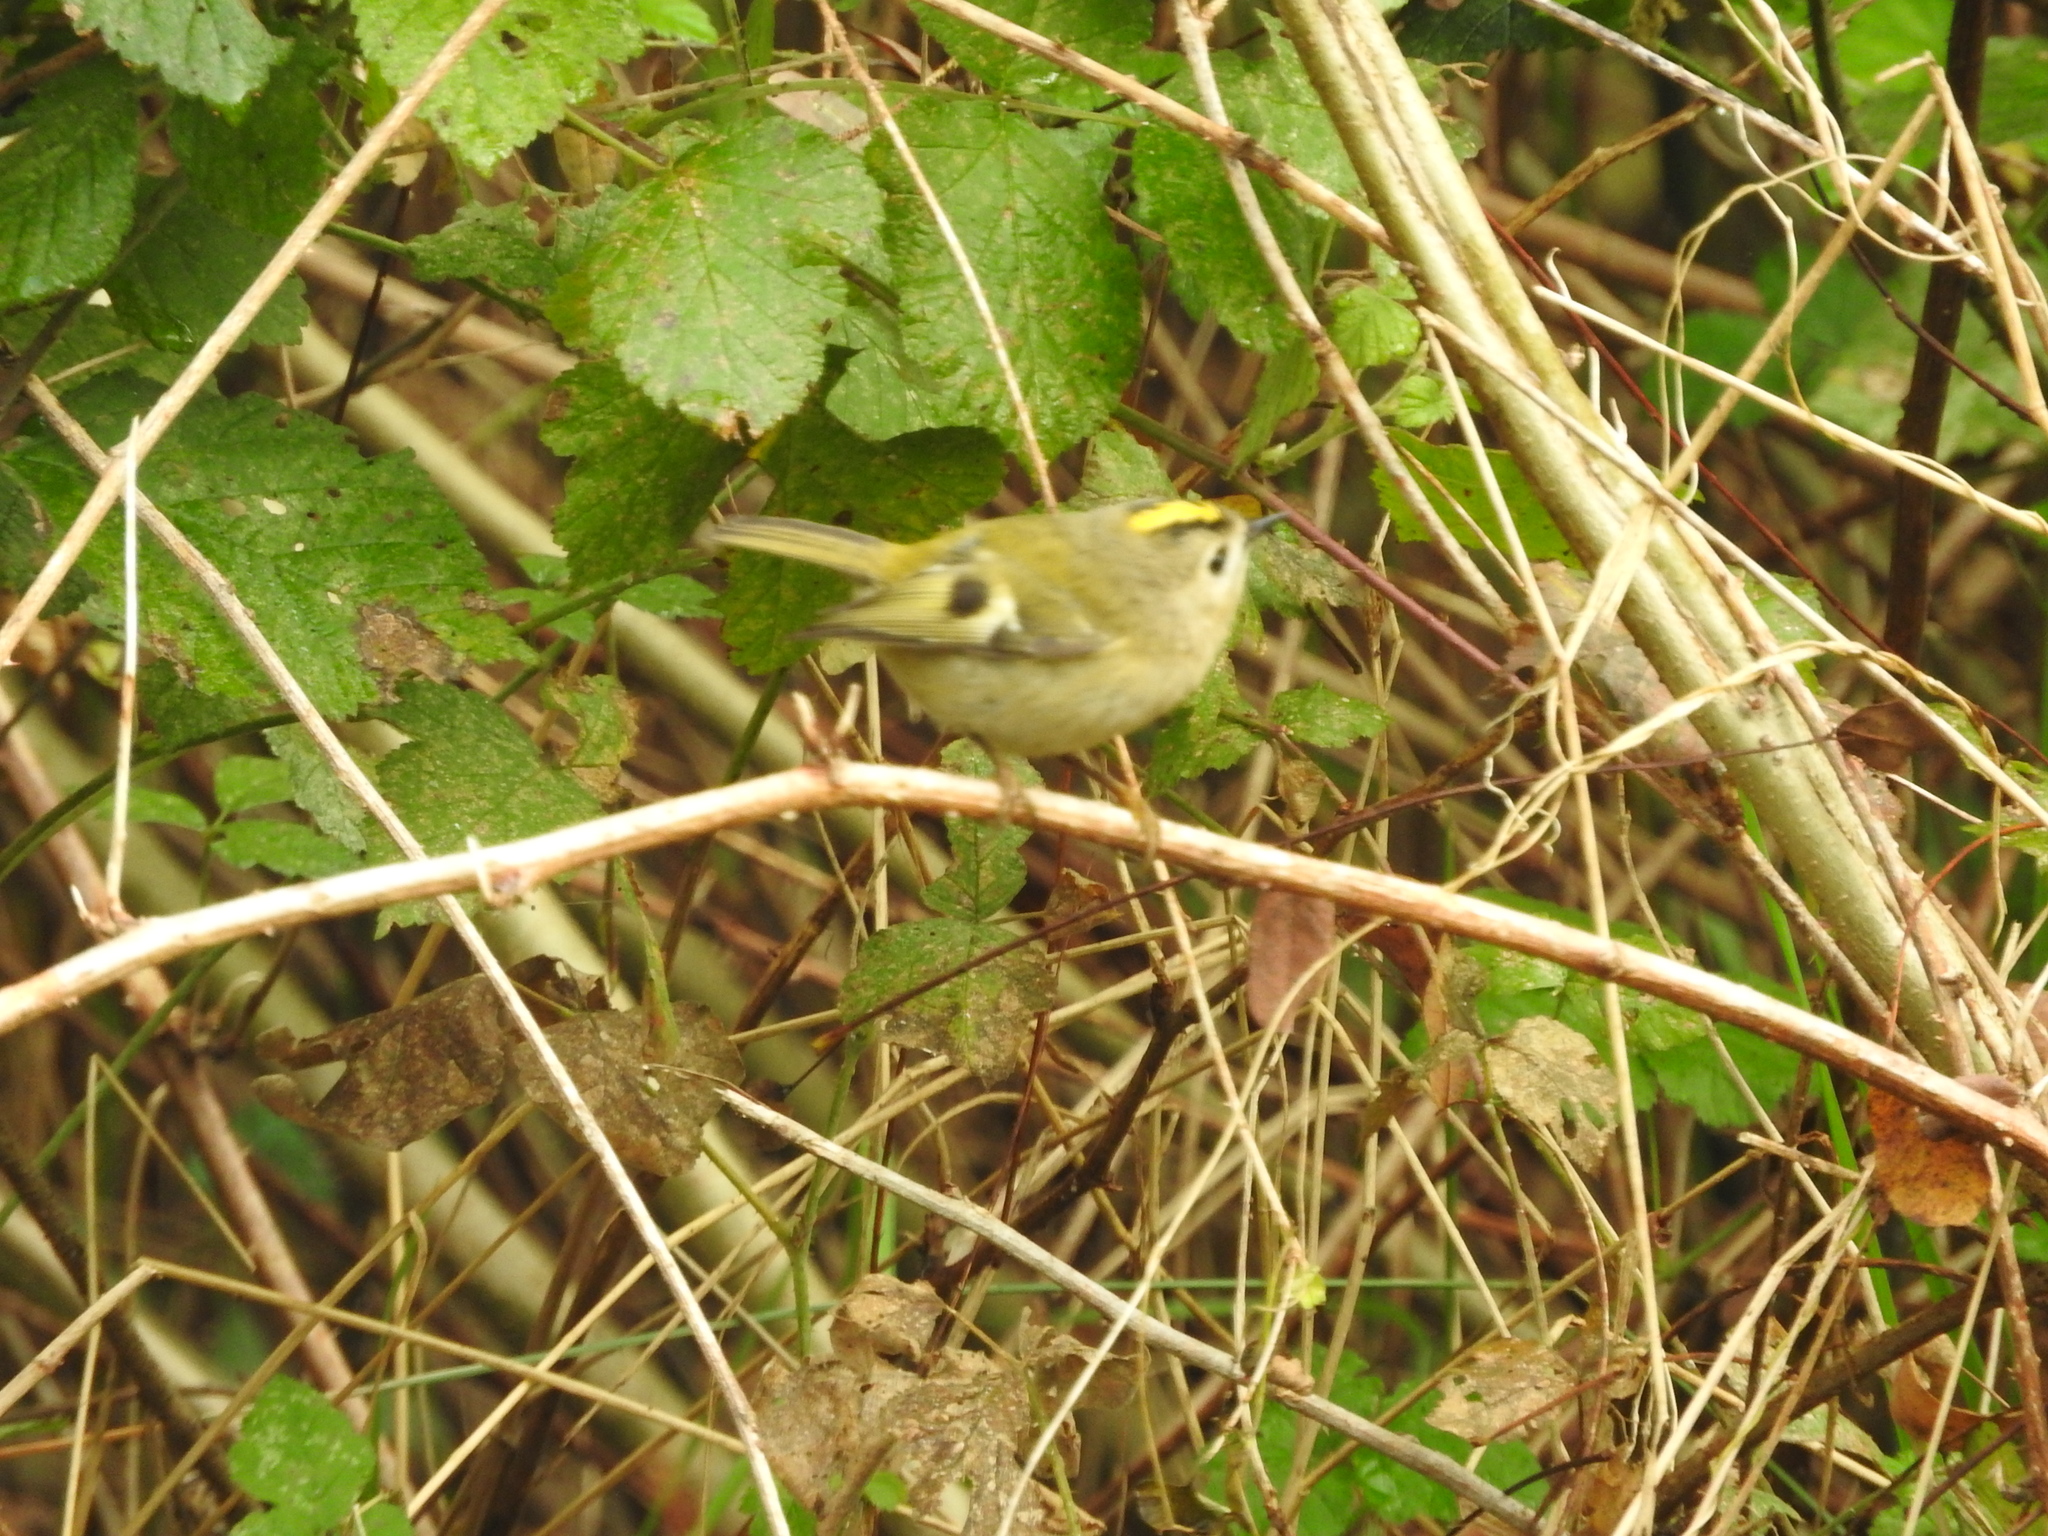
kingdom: Animalia
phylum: Chordata
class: Aves
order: Passeriformes
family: Regulidae
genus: Regulus
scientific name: Regulus regulus
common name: Goldcrest
